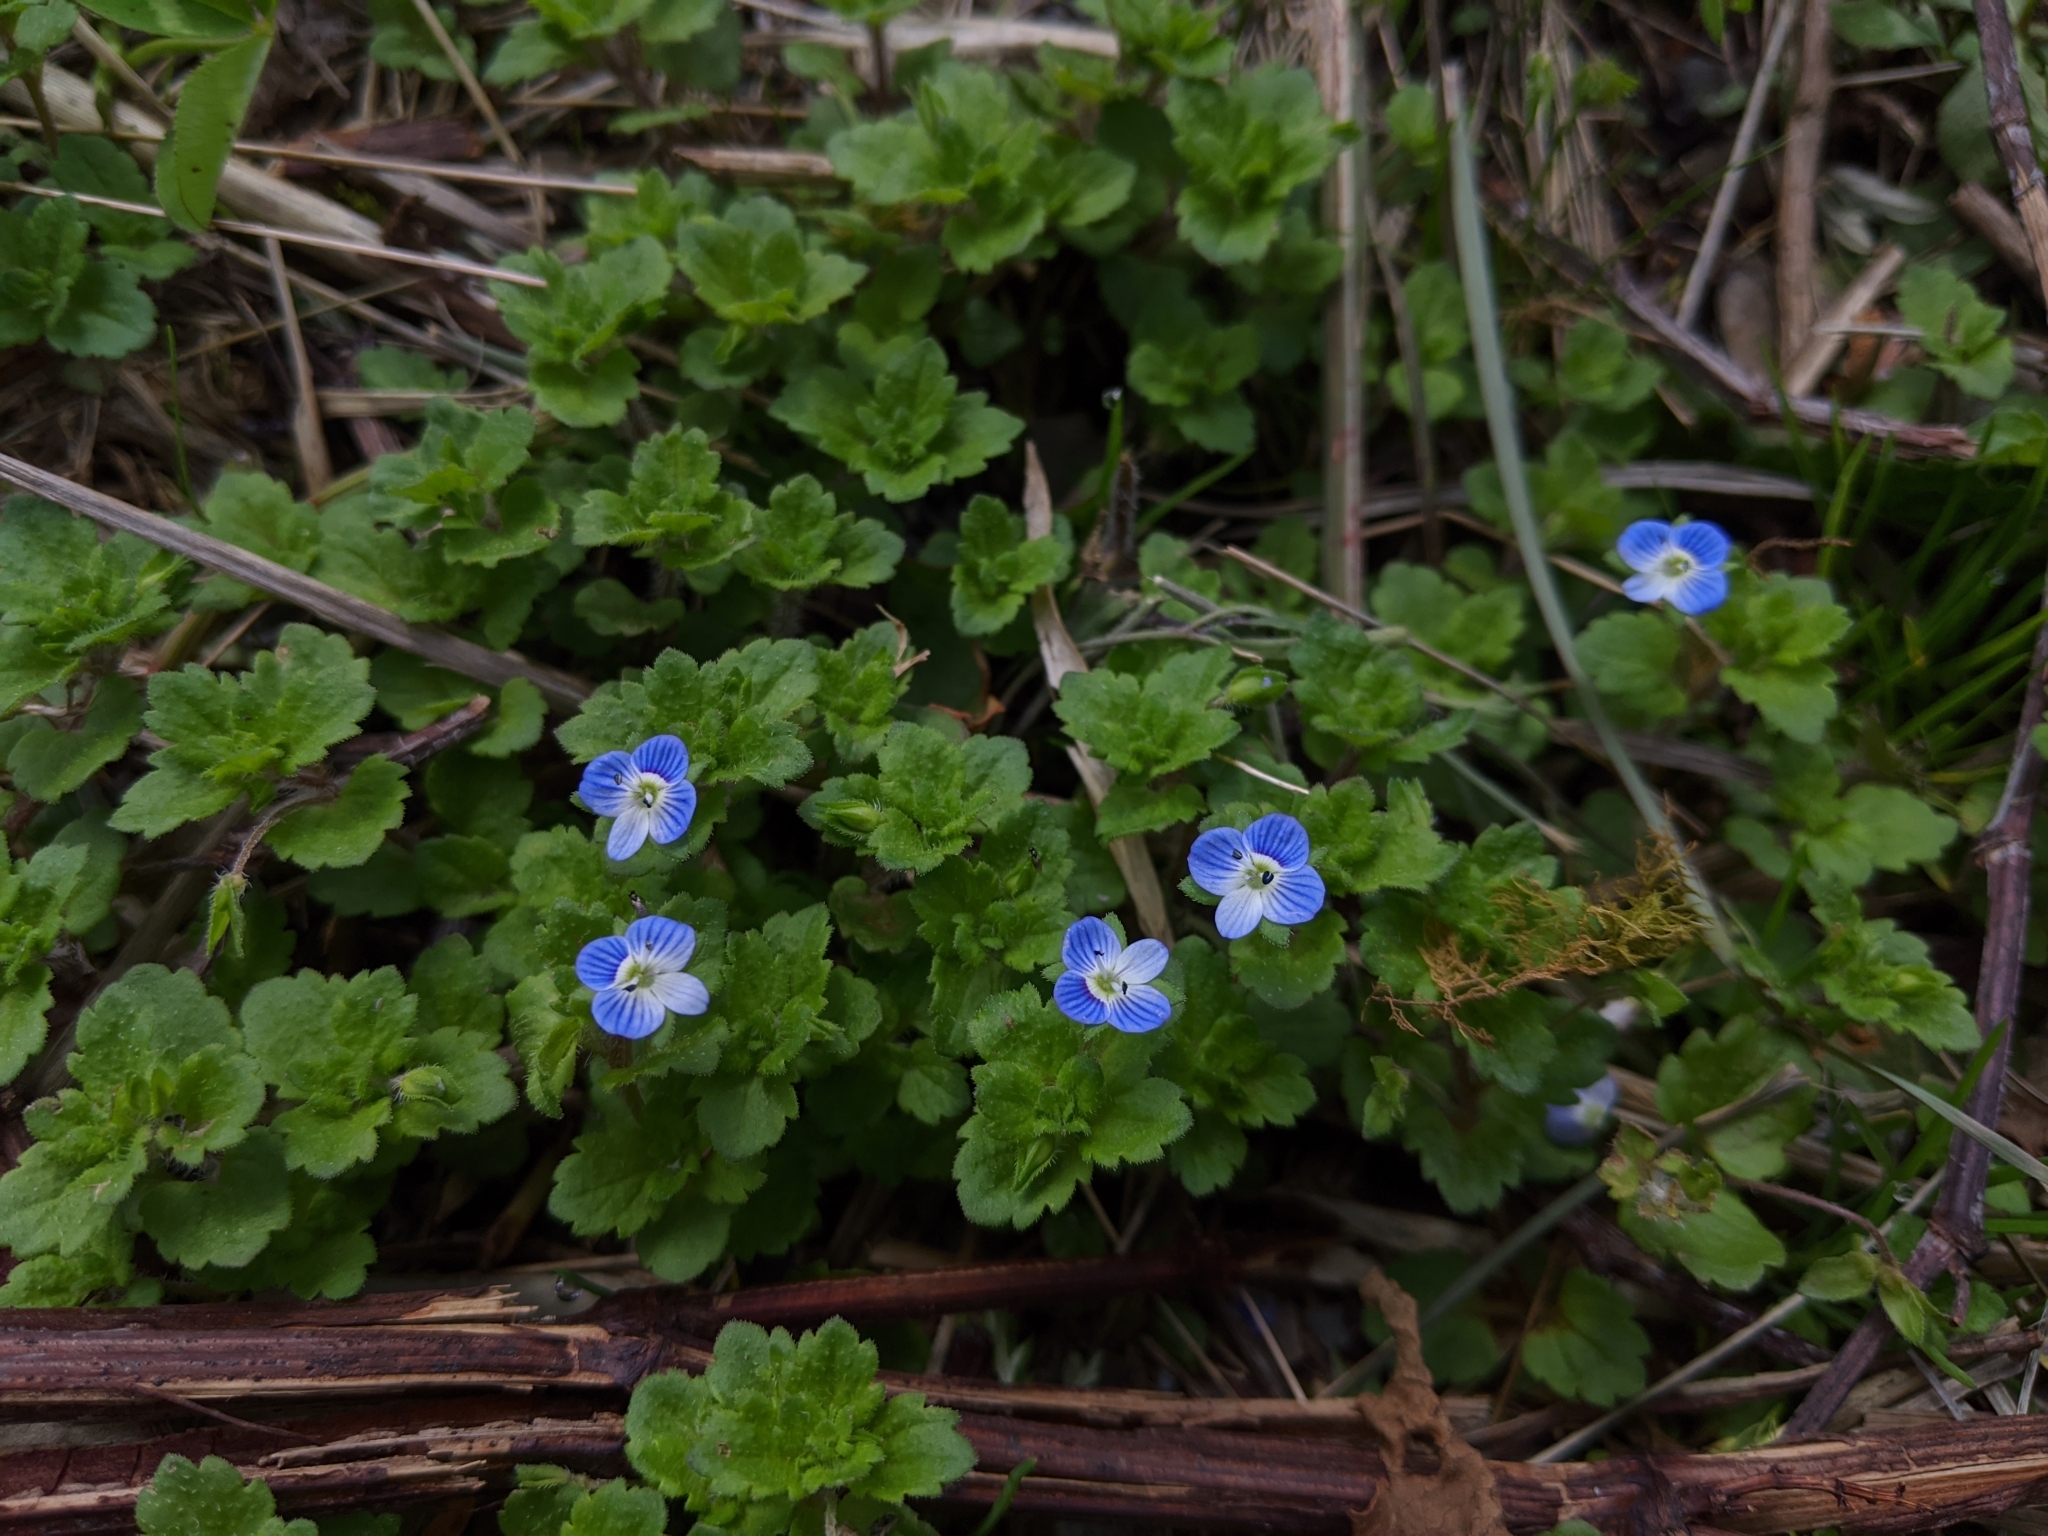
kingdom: Plantae
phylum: Tracheophyta
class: Magnoliopsida
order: Lamiales
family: Plantaginaceae
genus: Veronica
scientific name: Veronica persica
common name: Common field-speedwell
